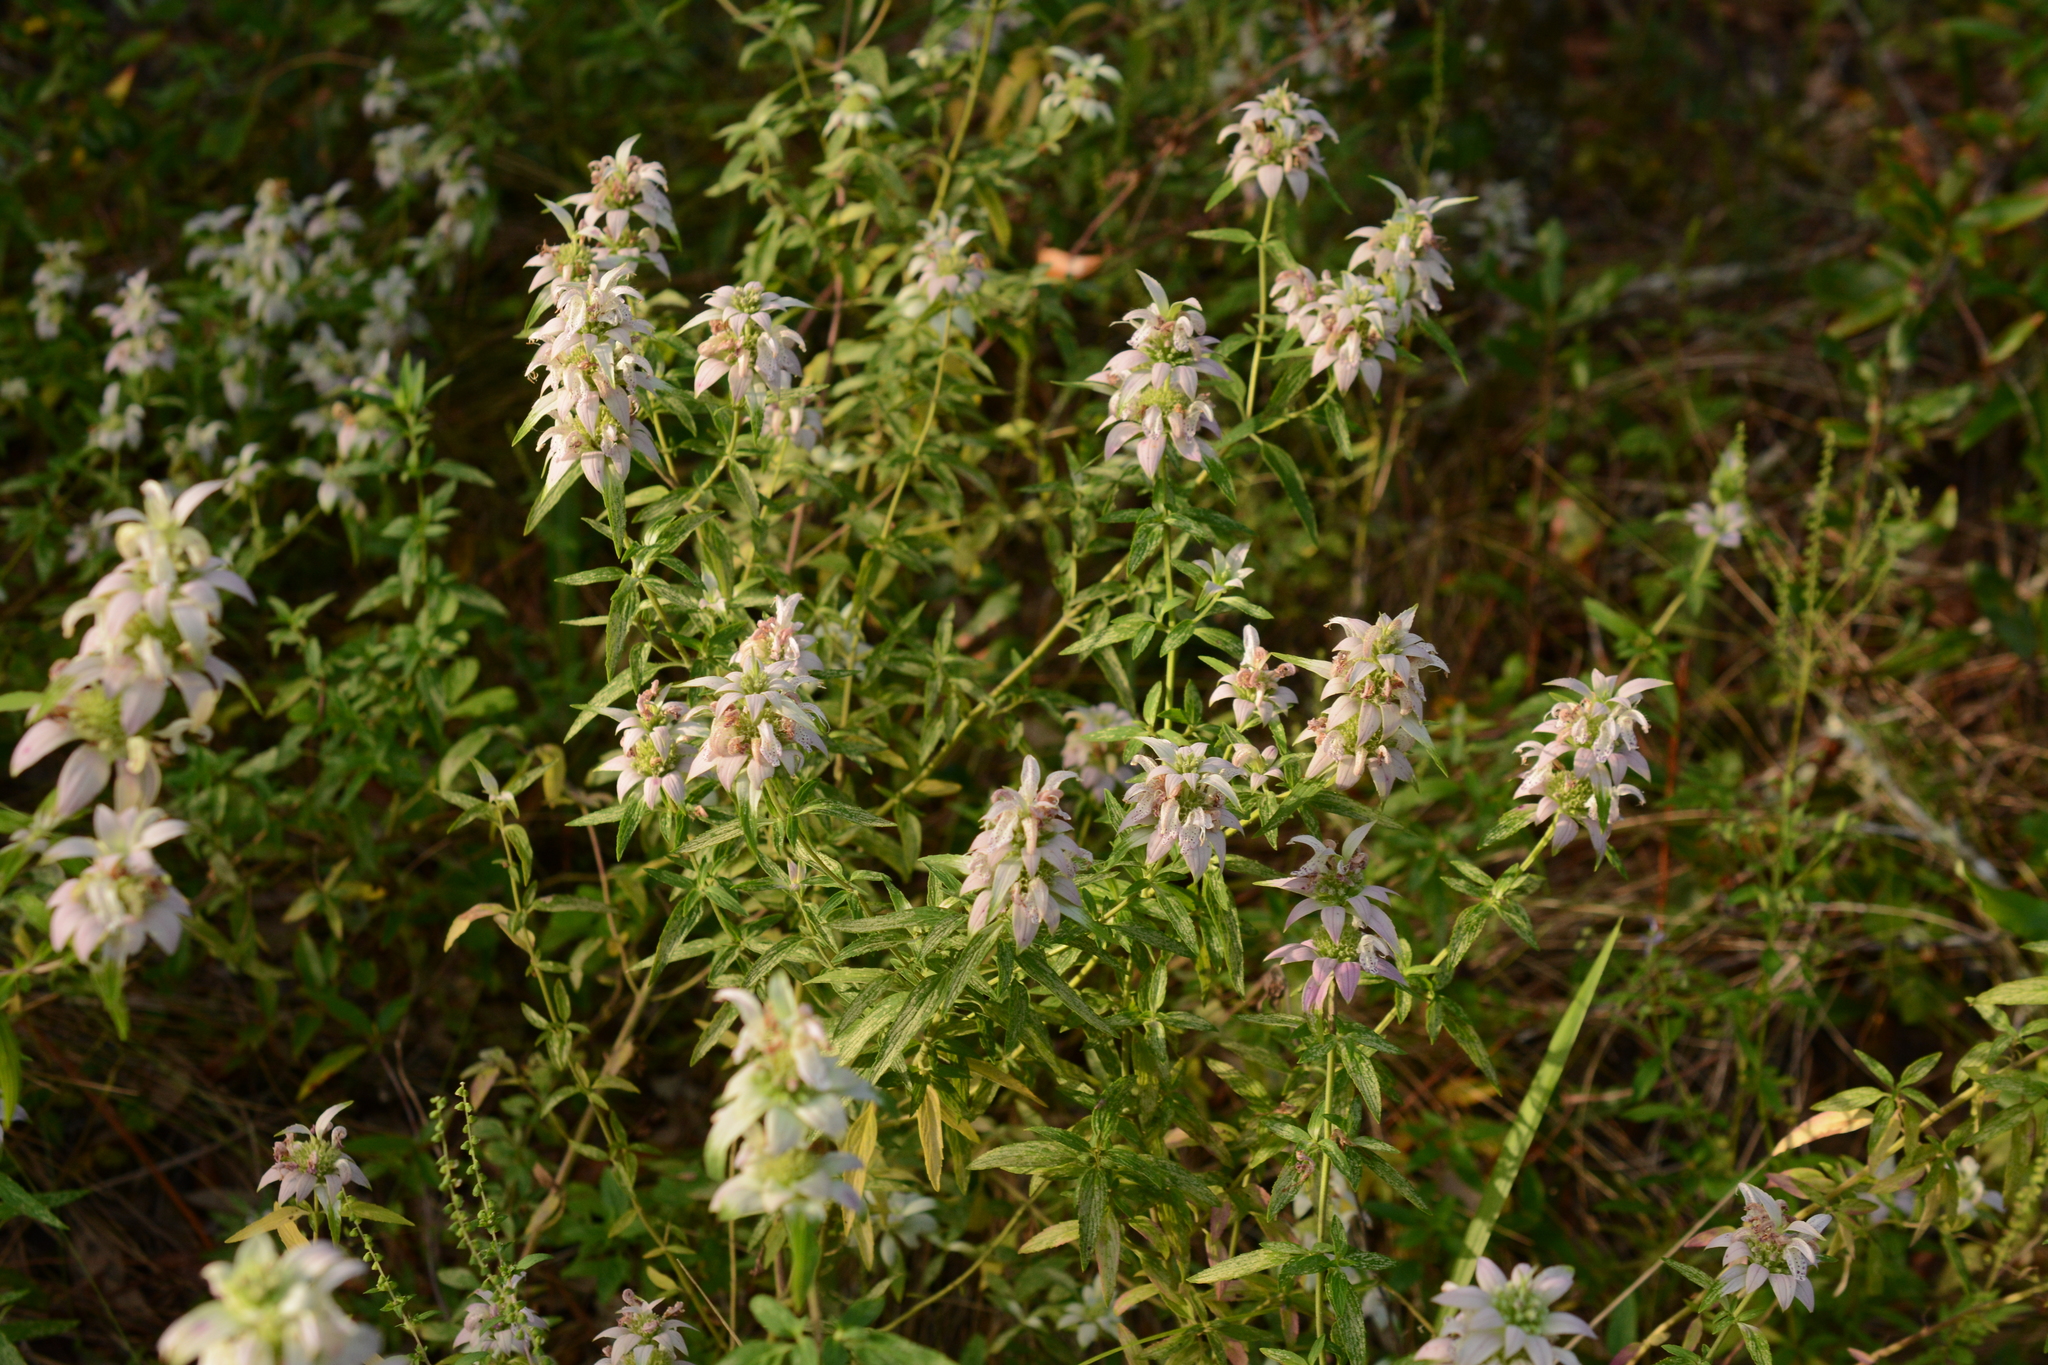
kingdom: Plantae
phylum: Tracheophyta
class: Magnoliopsida
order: Lamiales
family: Lamiaceae
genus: Monarda
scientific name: Monarda punctata
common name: Dotted monarda
